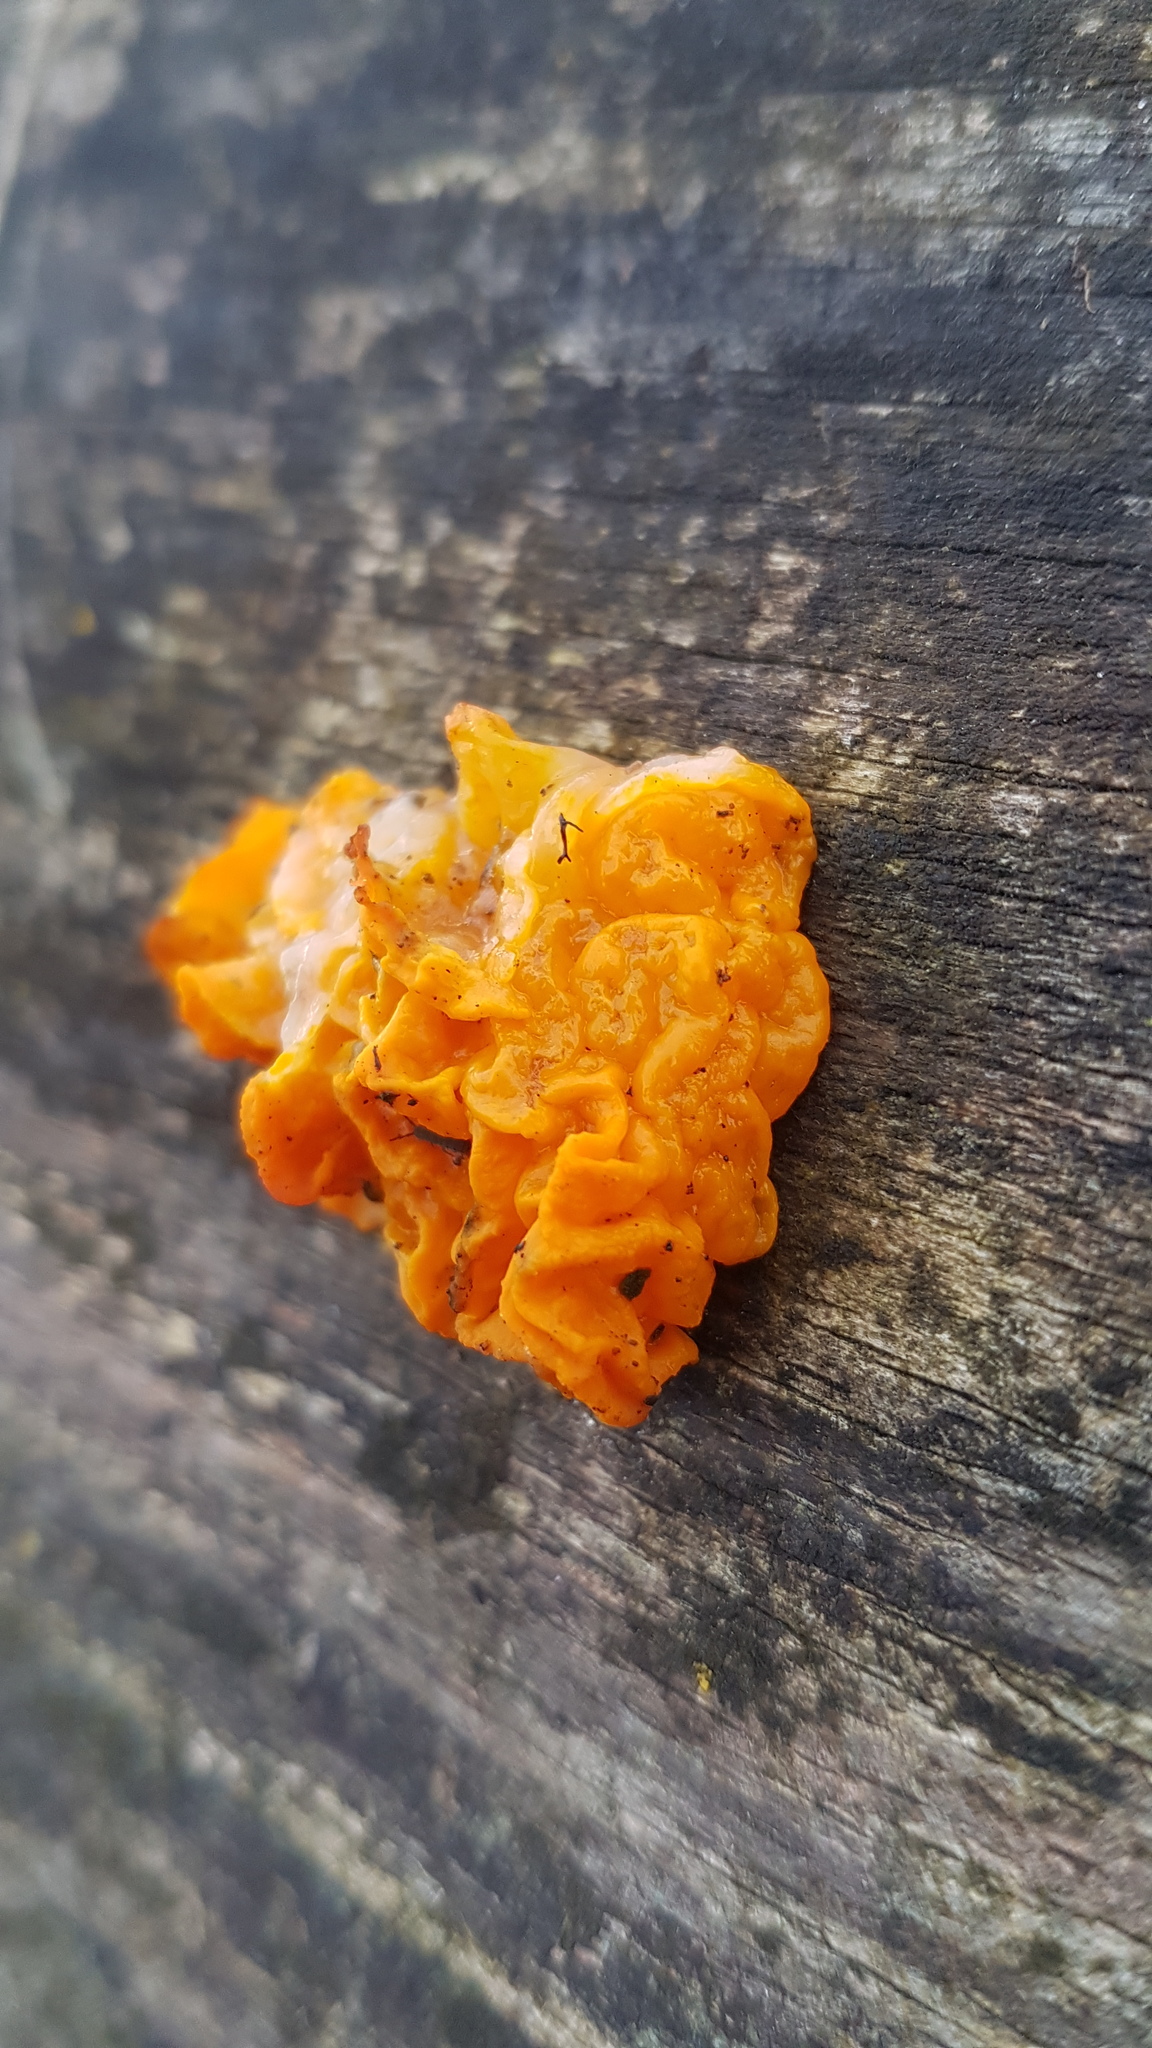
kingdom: Fungi
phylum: Basidiomycota
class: Tremellomycetes
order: Tremellales
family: Tremellaceae
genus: Tremella
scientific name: Tremella mesenterica
